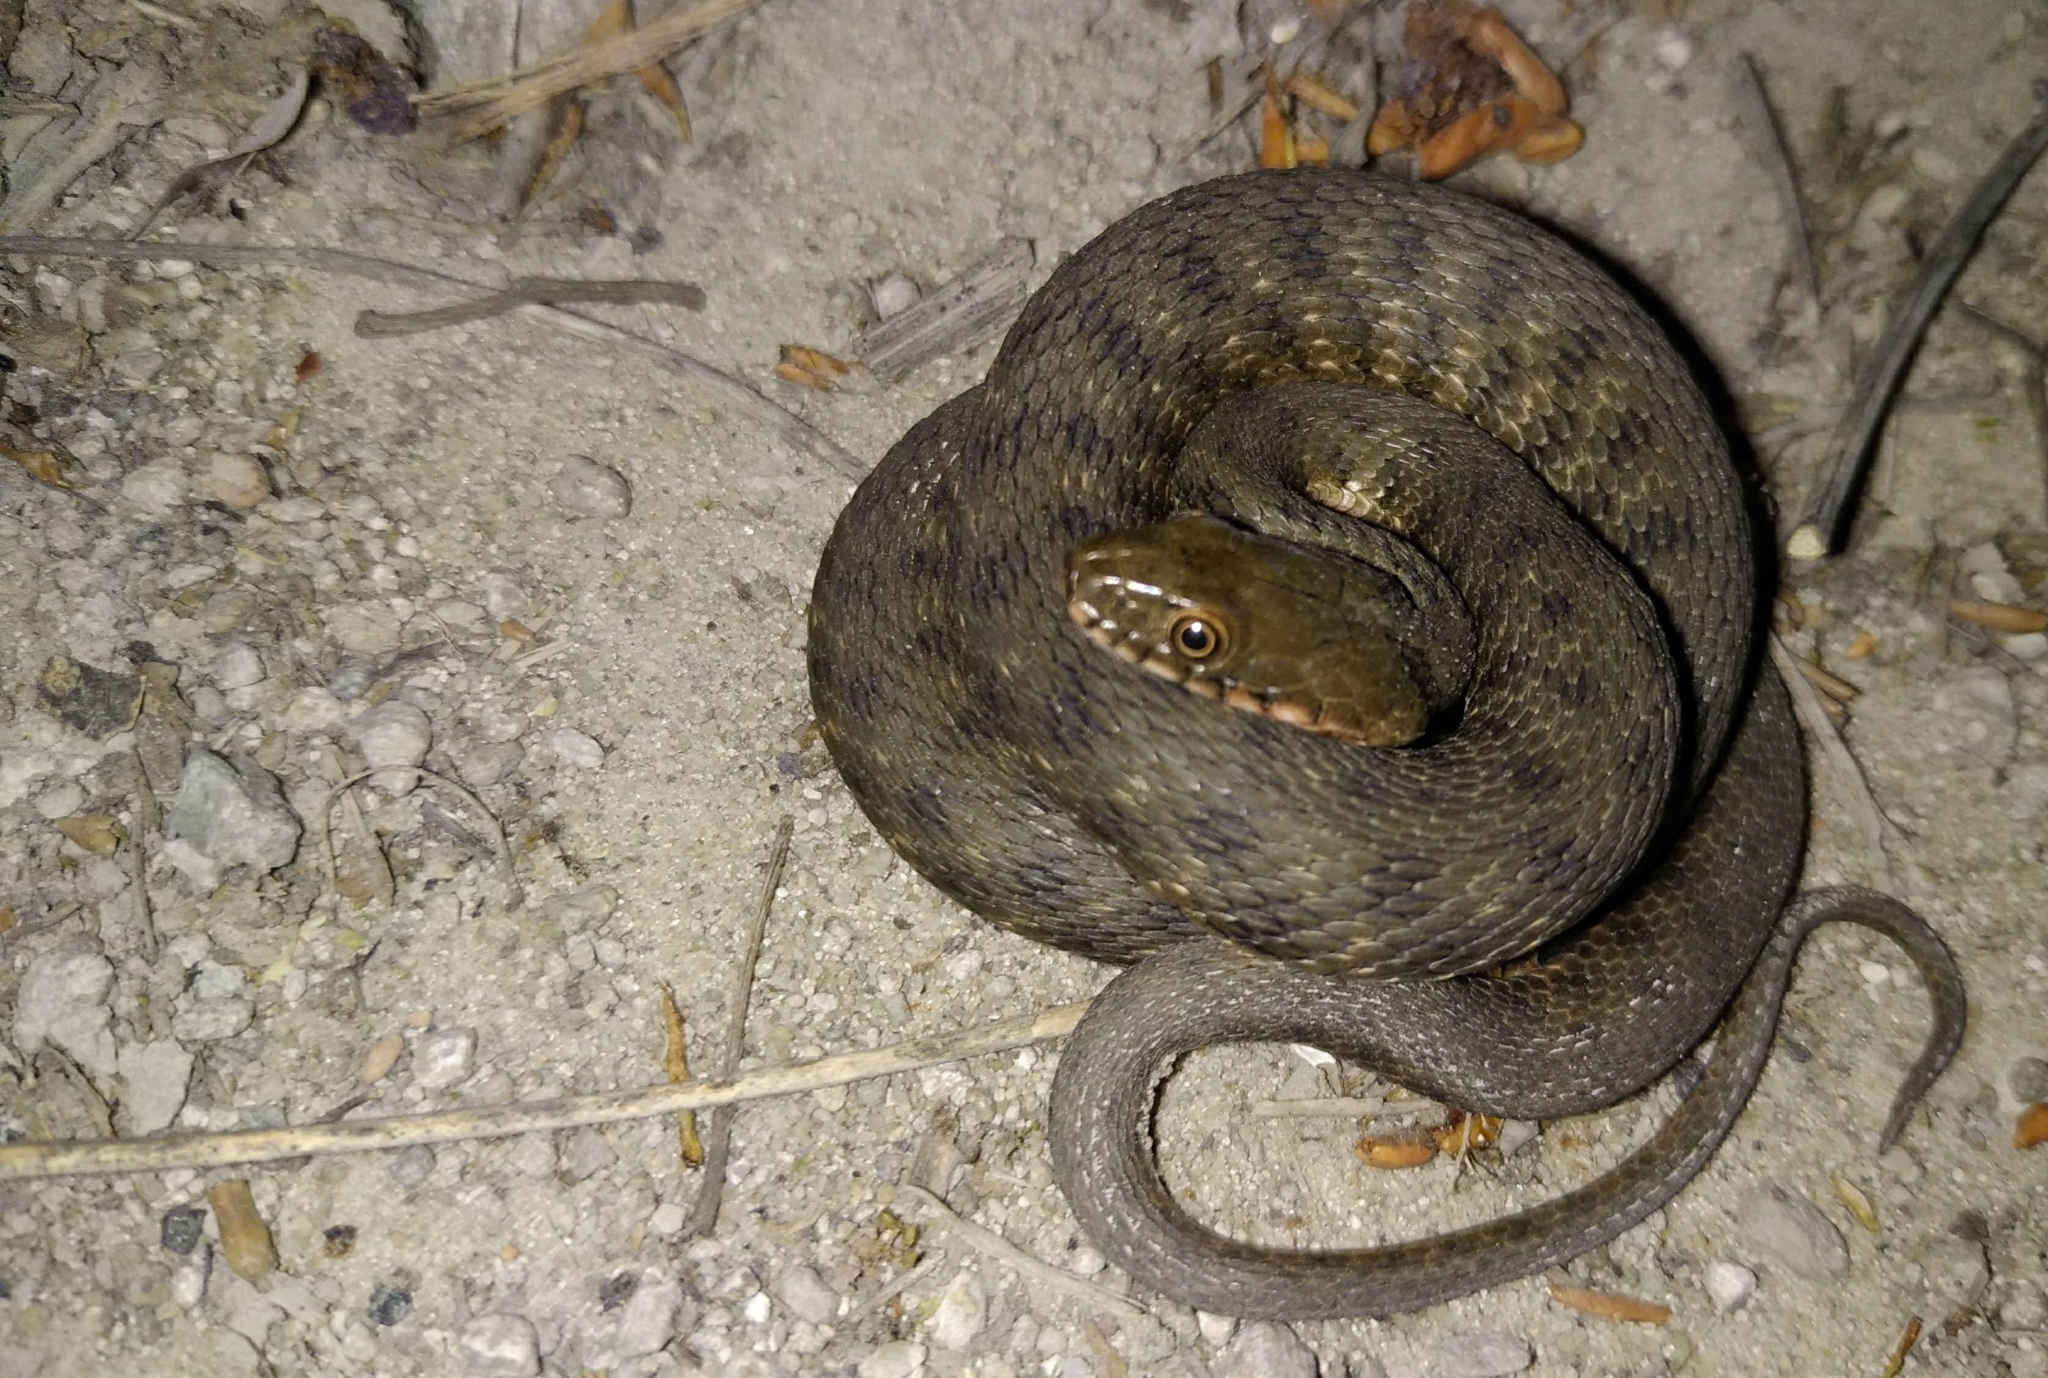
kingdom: Animalia
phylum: Chordata
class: Squamata
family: Colubridae
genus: Natrix
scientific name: Natrix tessellata
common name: Dice snake
